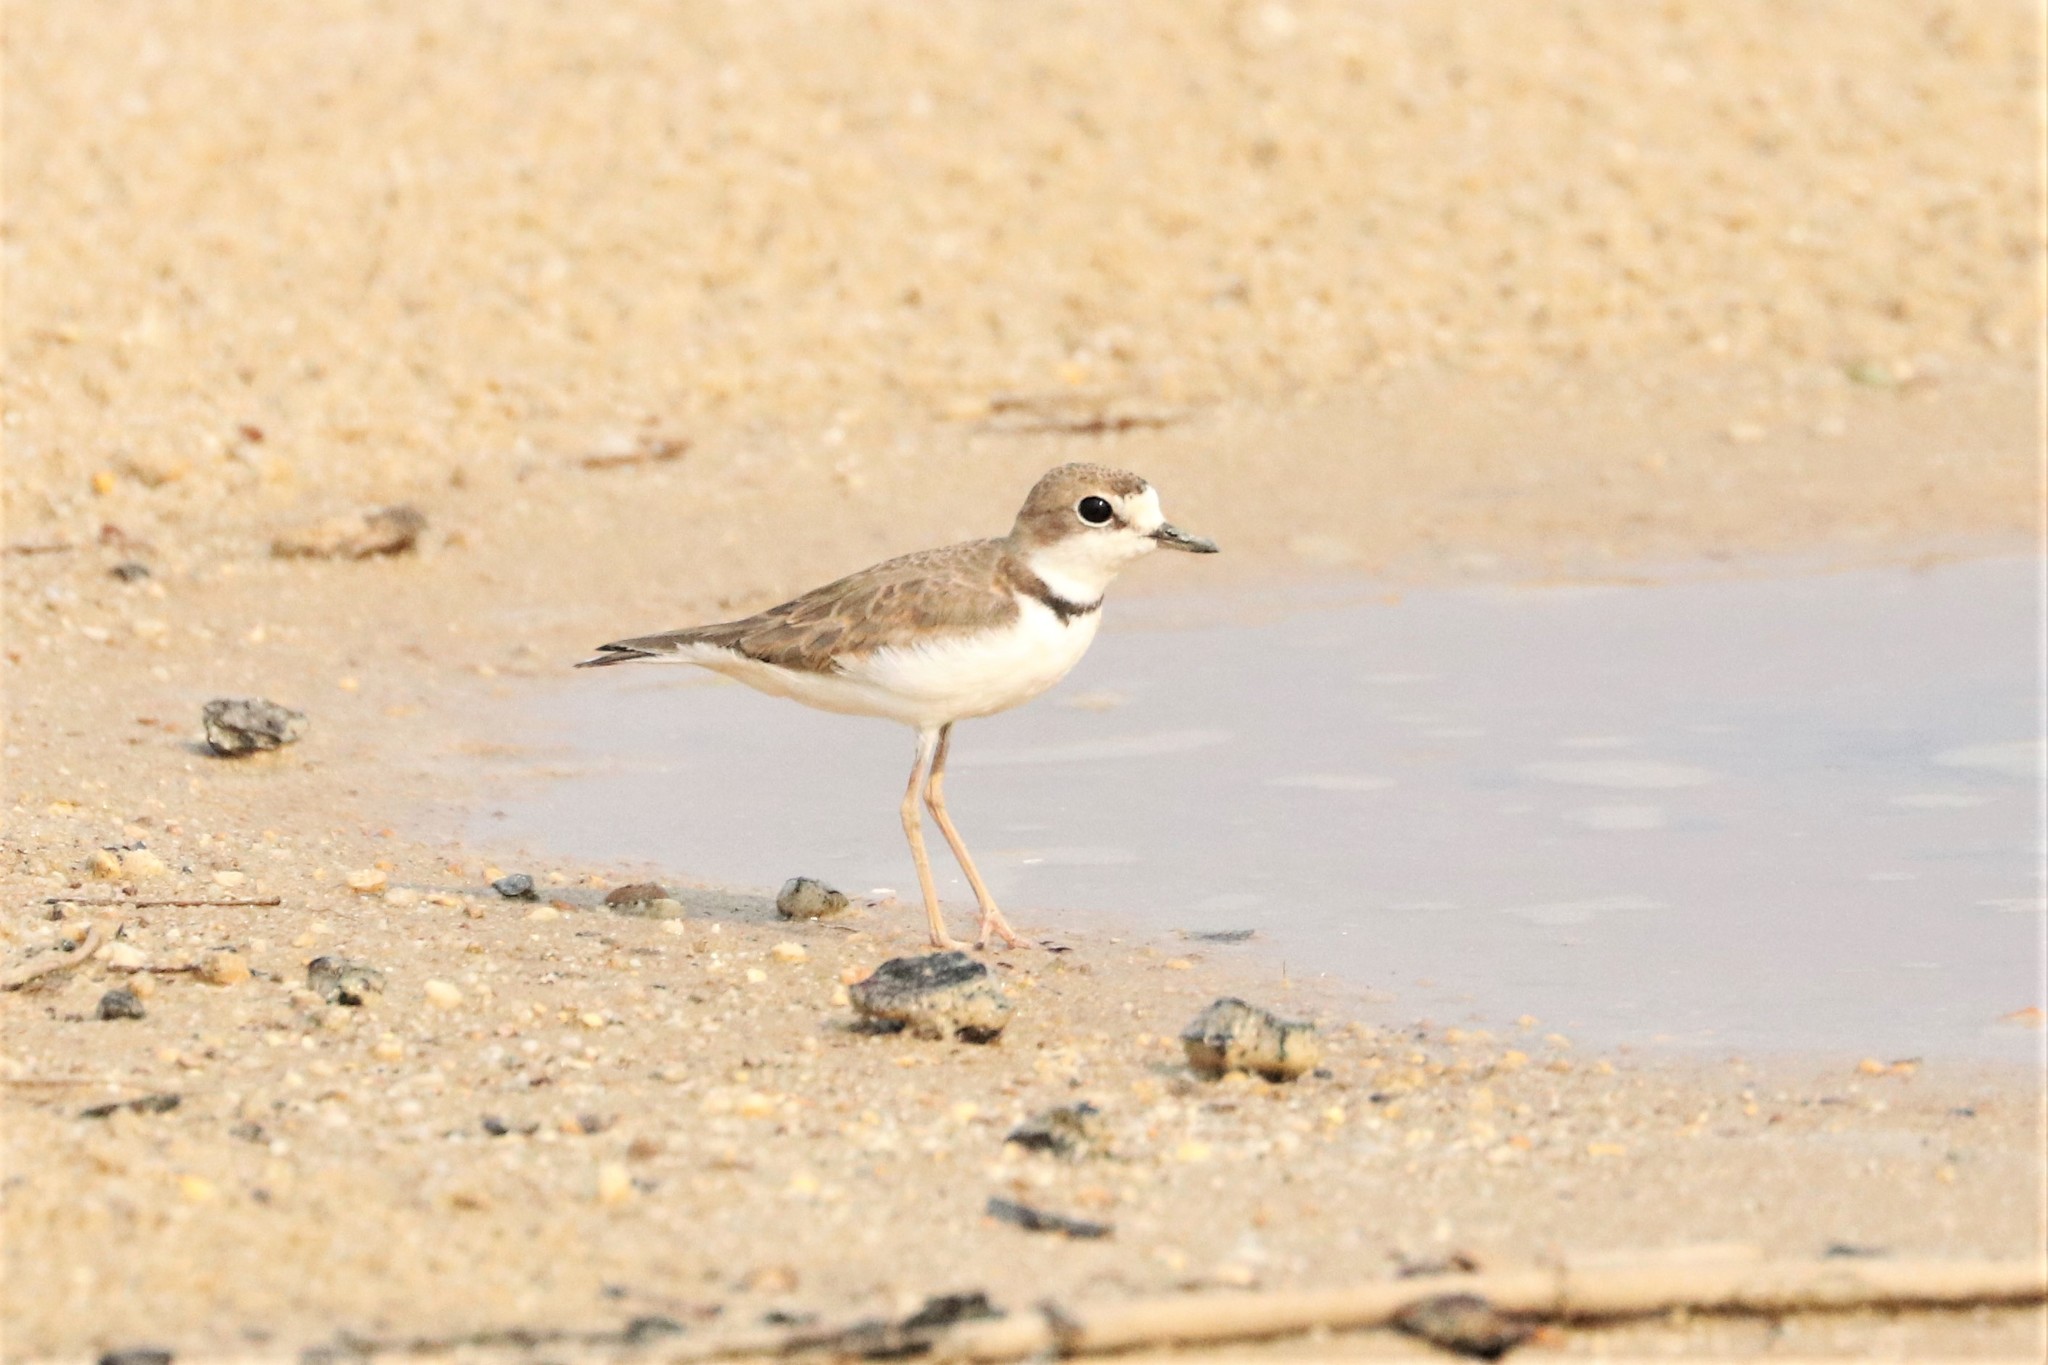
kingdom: Animalia
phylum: Chordata
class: Aves
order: Charadriiformes
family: Charadriidae
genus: Anarhynchus
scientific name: Anarhynchus
